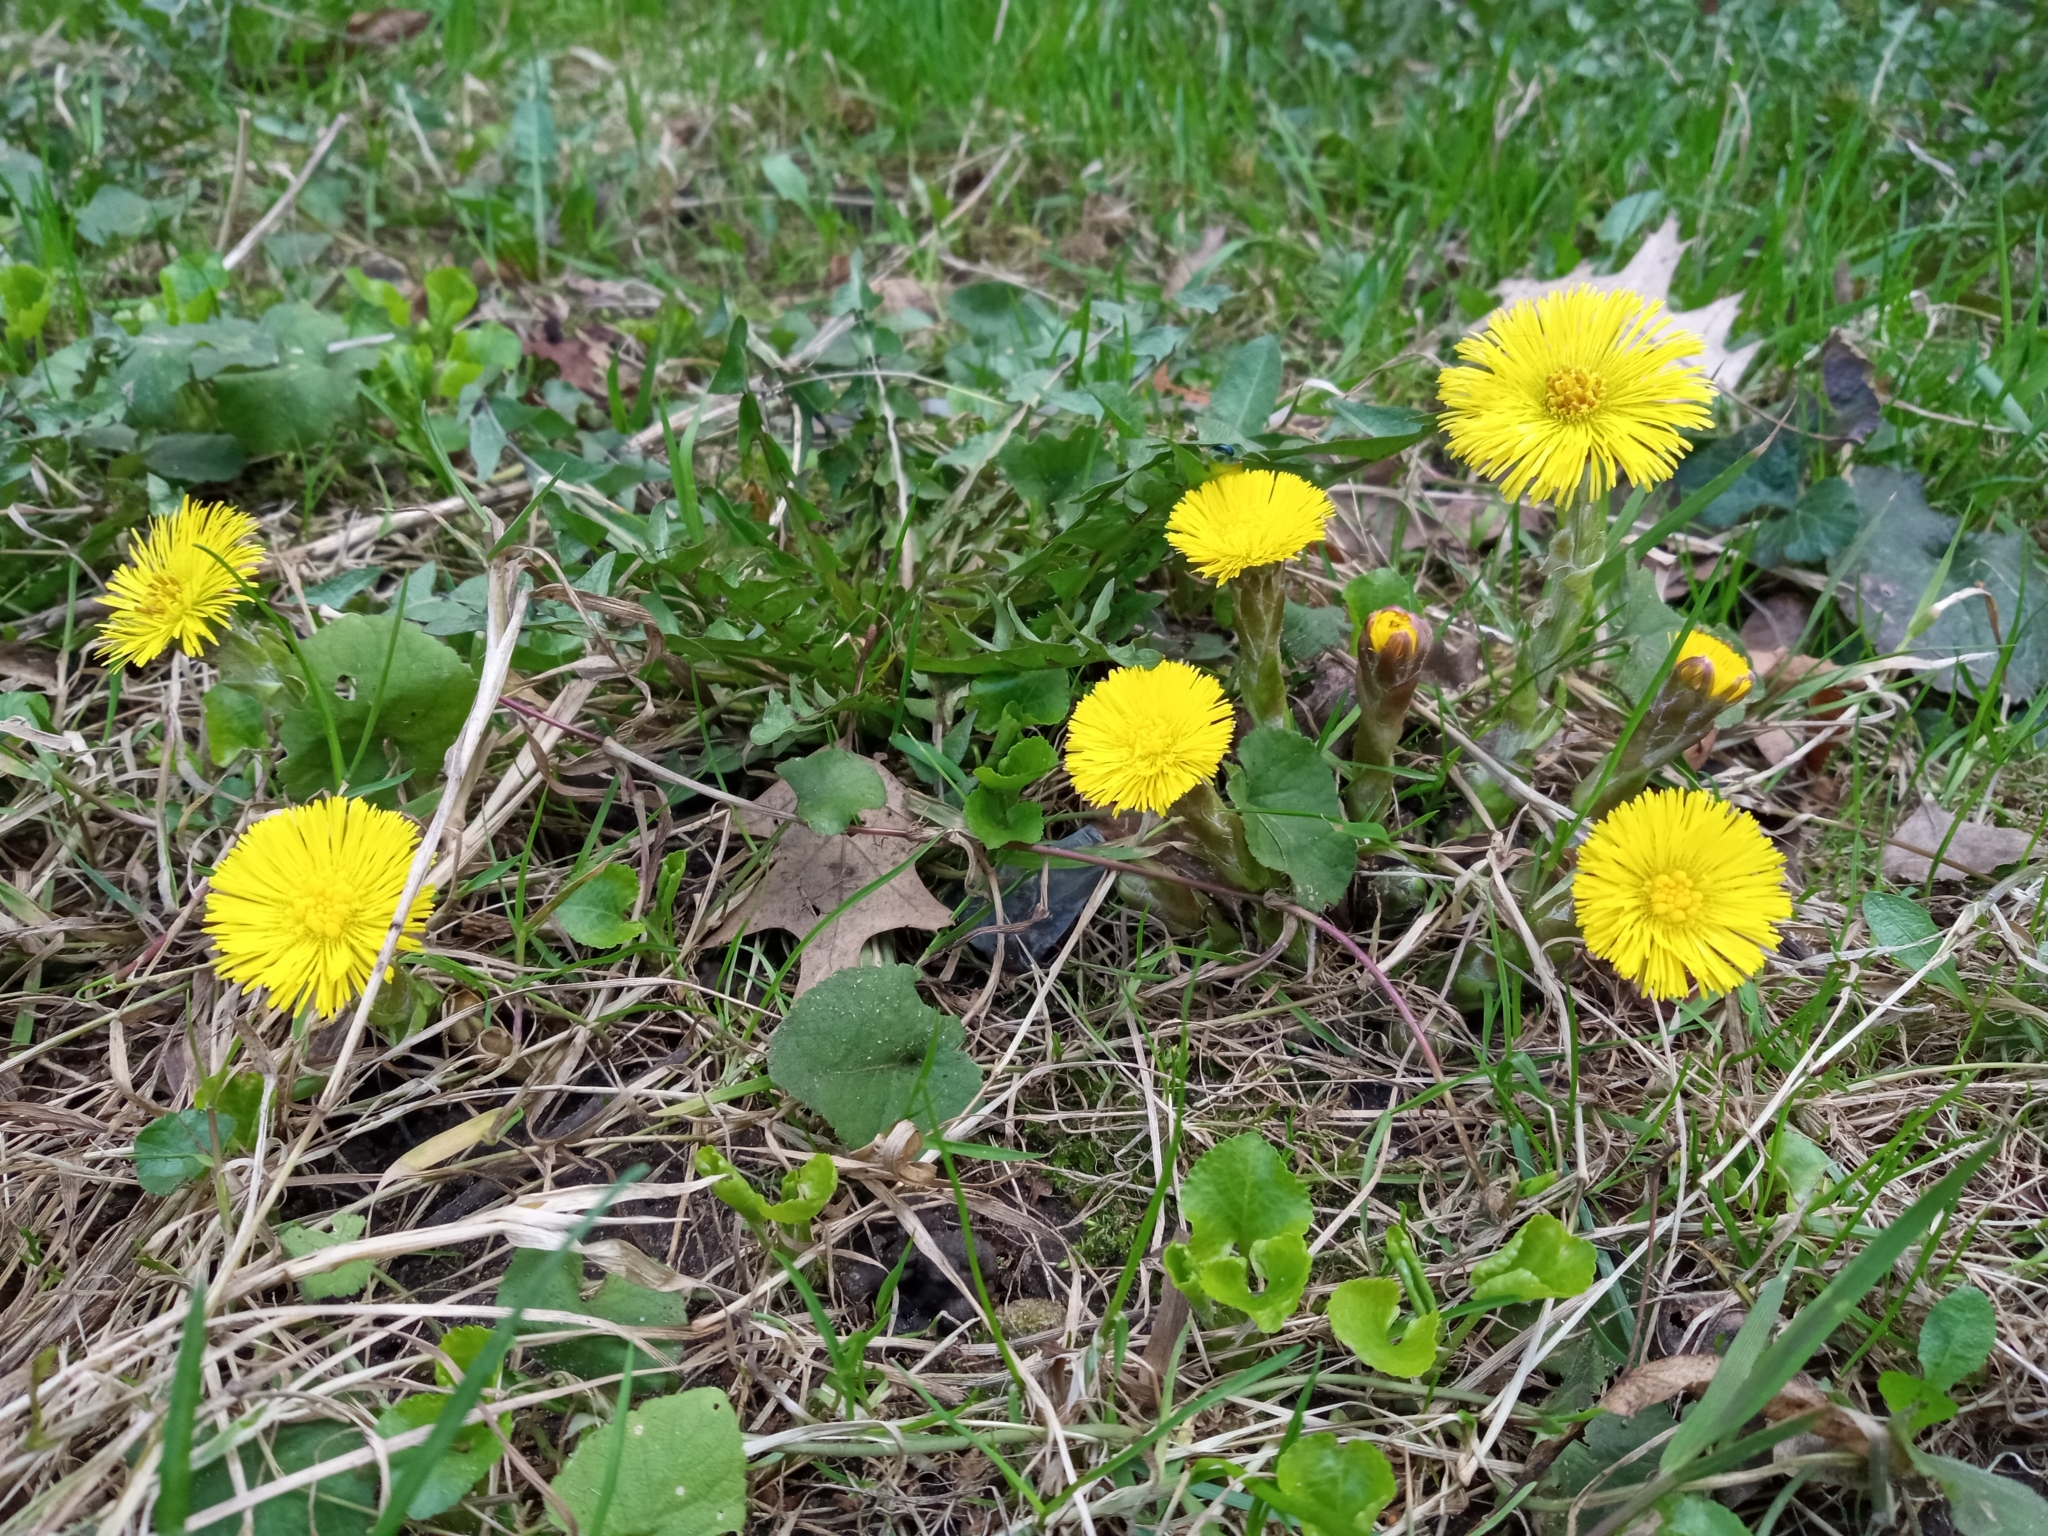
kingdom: Plantae
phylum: Tracheophyta
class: Magnoliopsida
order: Asterales
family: Asteraceae
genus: Tussilago
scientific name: Tussilago farfara
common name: Coltsfoot
